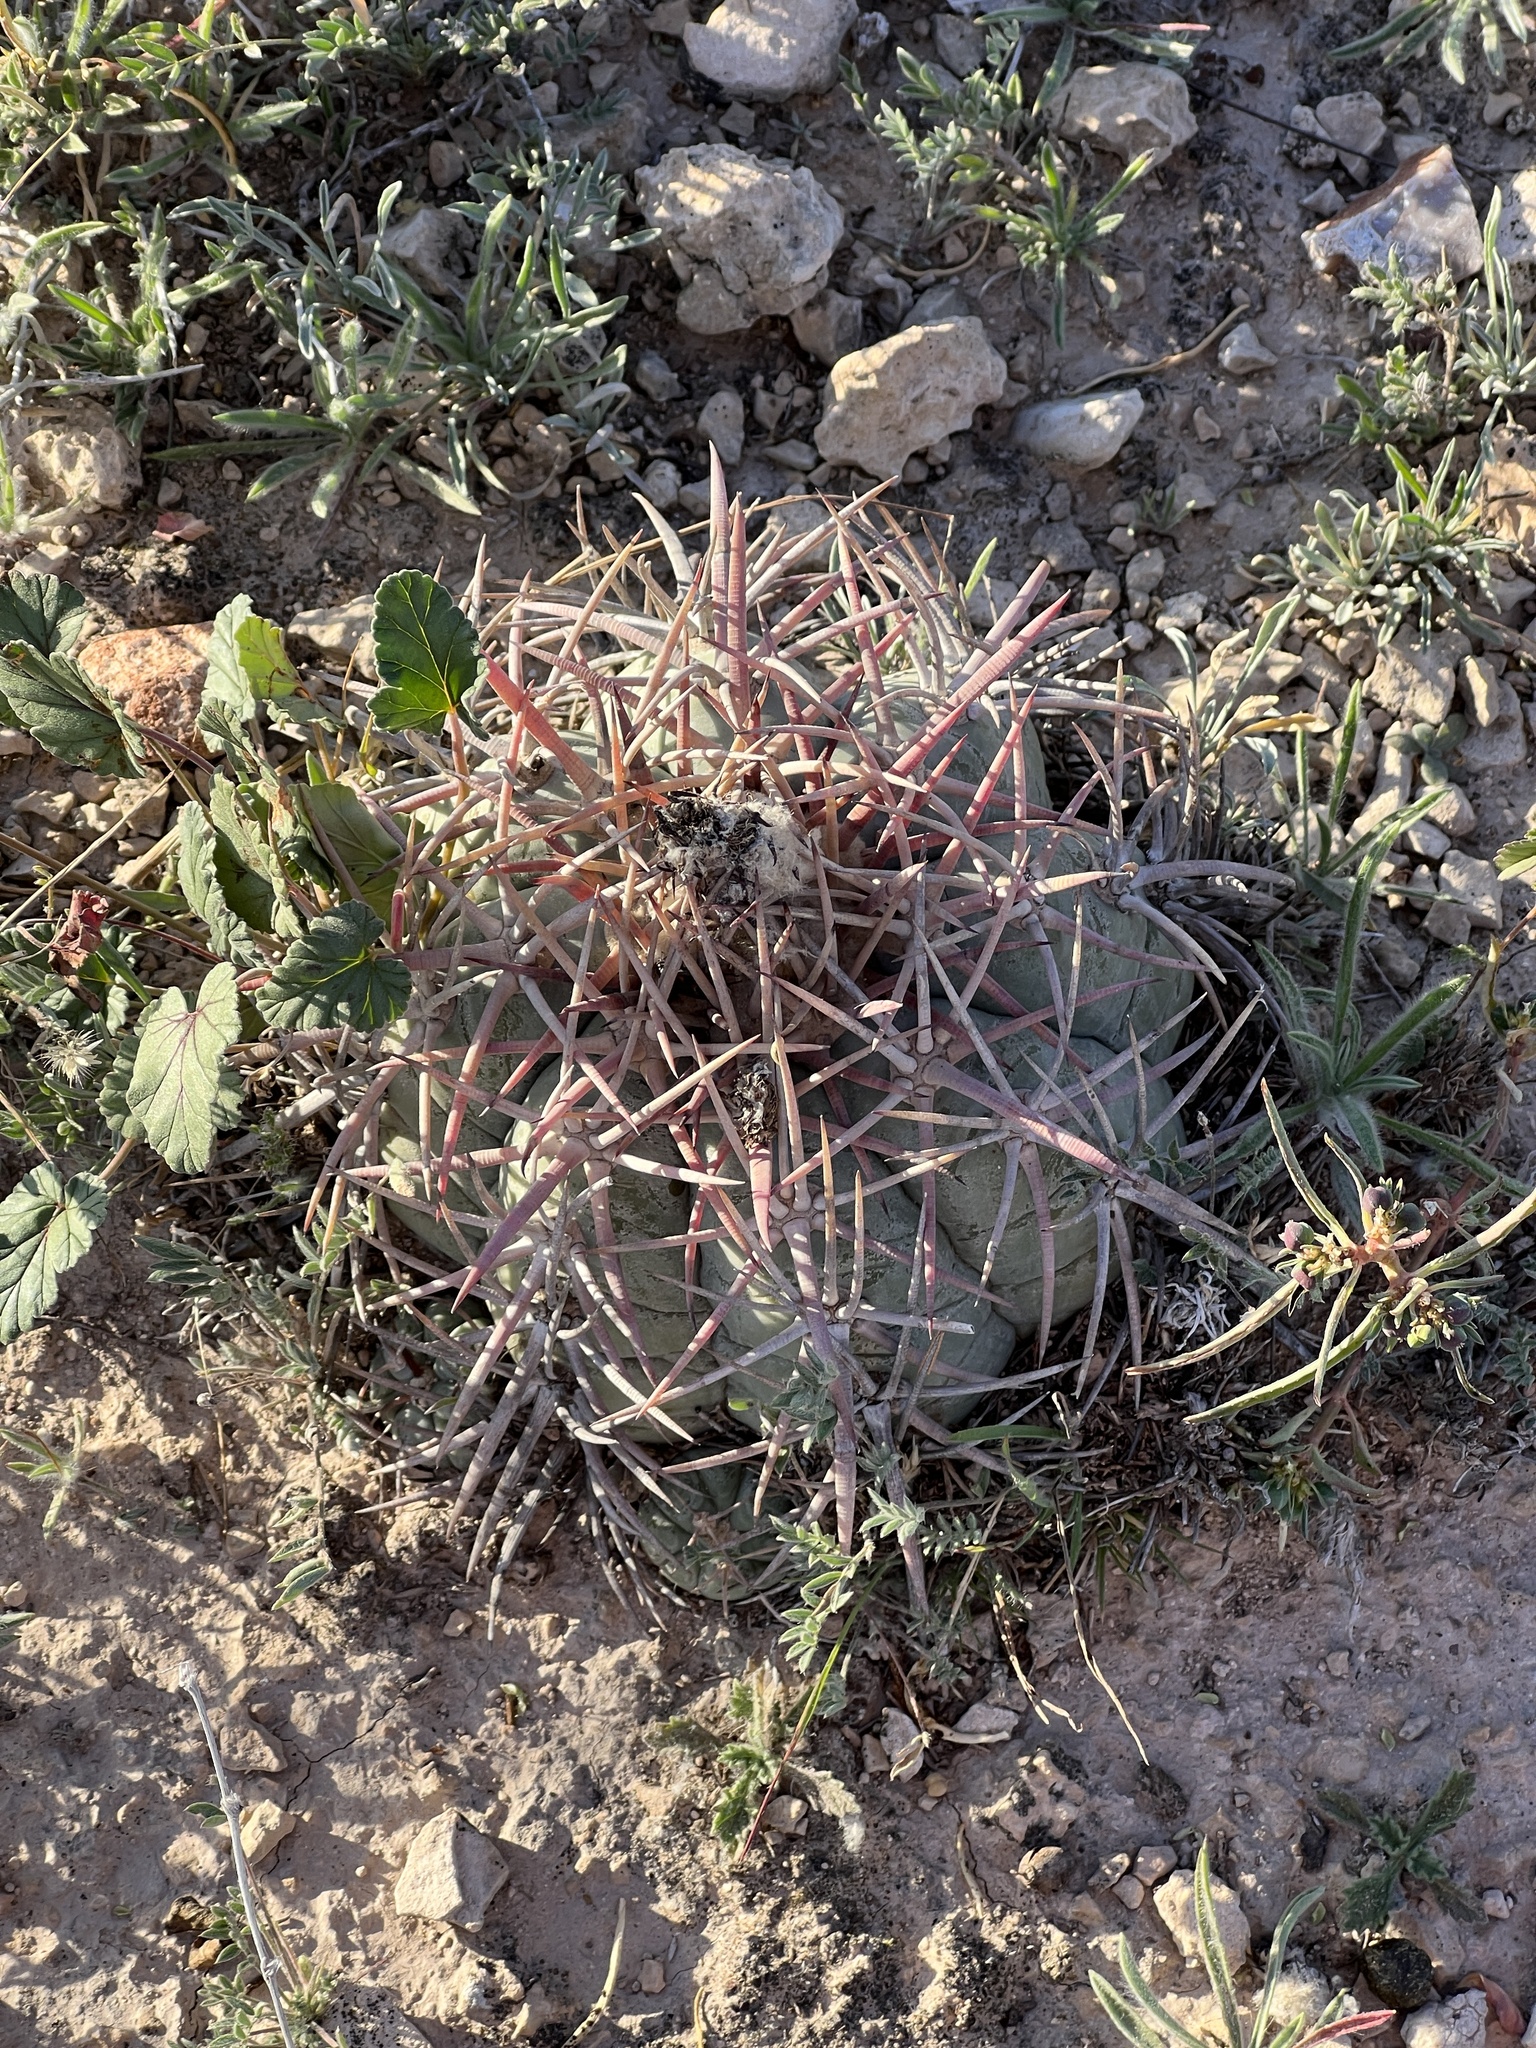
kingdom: Plantae
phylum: Tracheophyta
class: Magnoliopsida
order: Caryophyllales
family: Cactaceae
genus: Echinocactus
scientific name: Echinocactus horizonthalonius
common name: Devilshead
